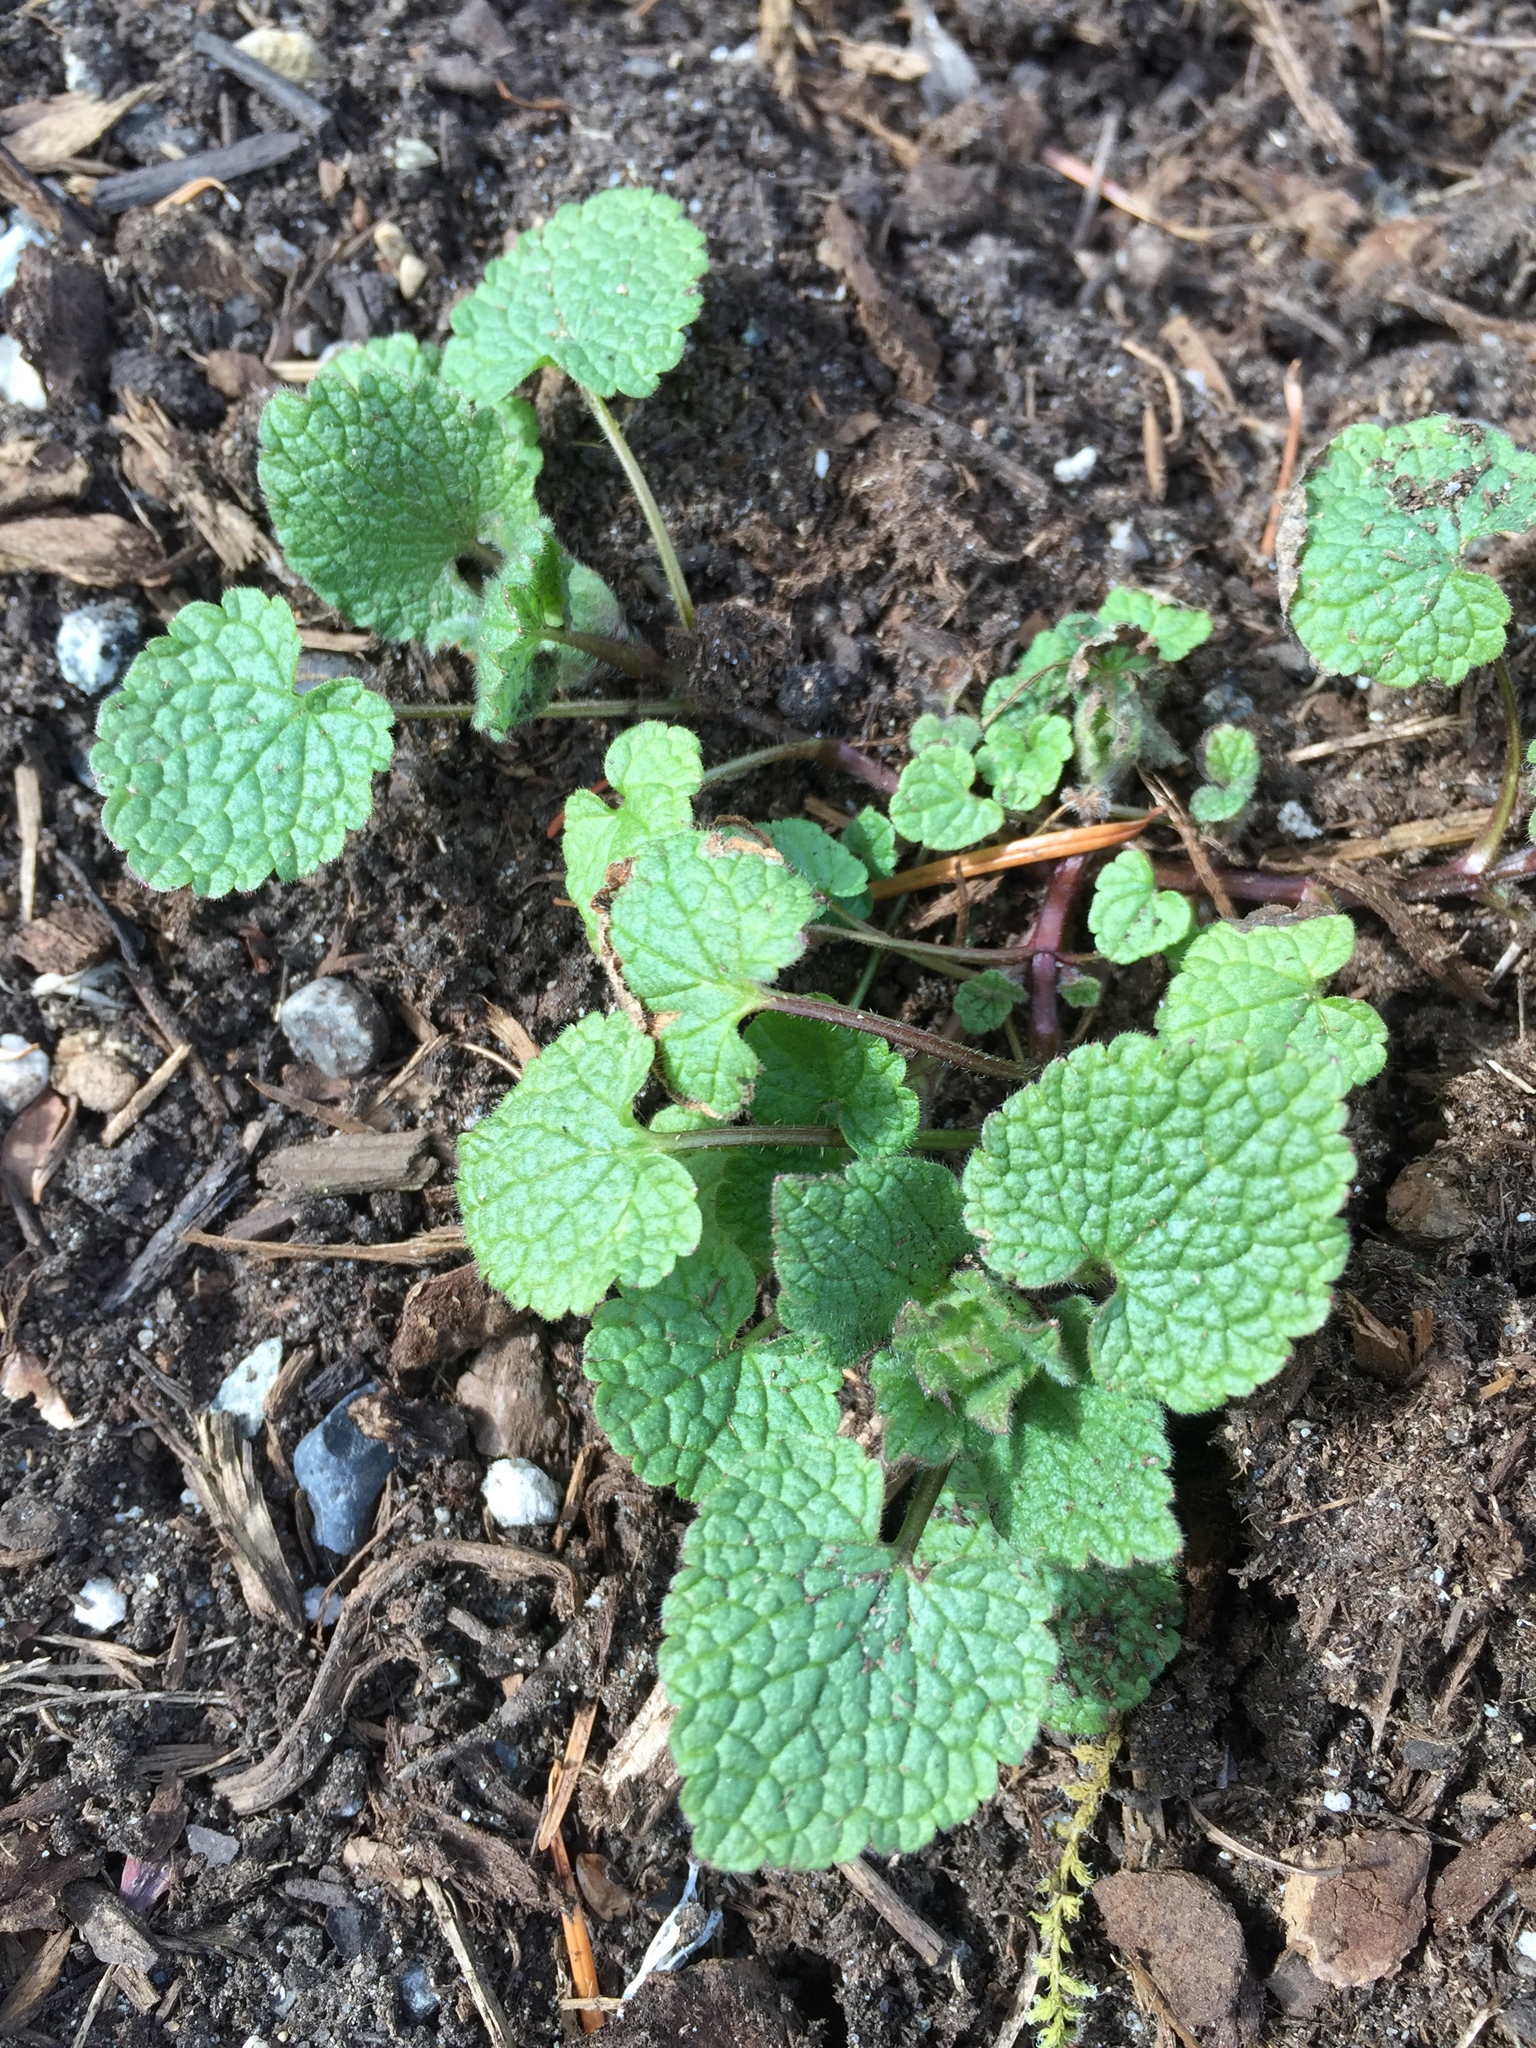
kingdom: Plantae
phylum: Tracheophyta
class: Magnoliopsida
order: Lamiales
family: Lamiaceae
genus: Lamium
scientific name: Lamium purpureum
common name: Red dead-nettle
